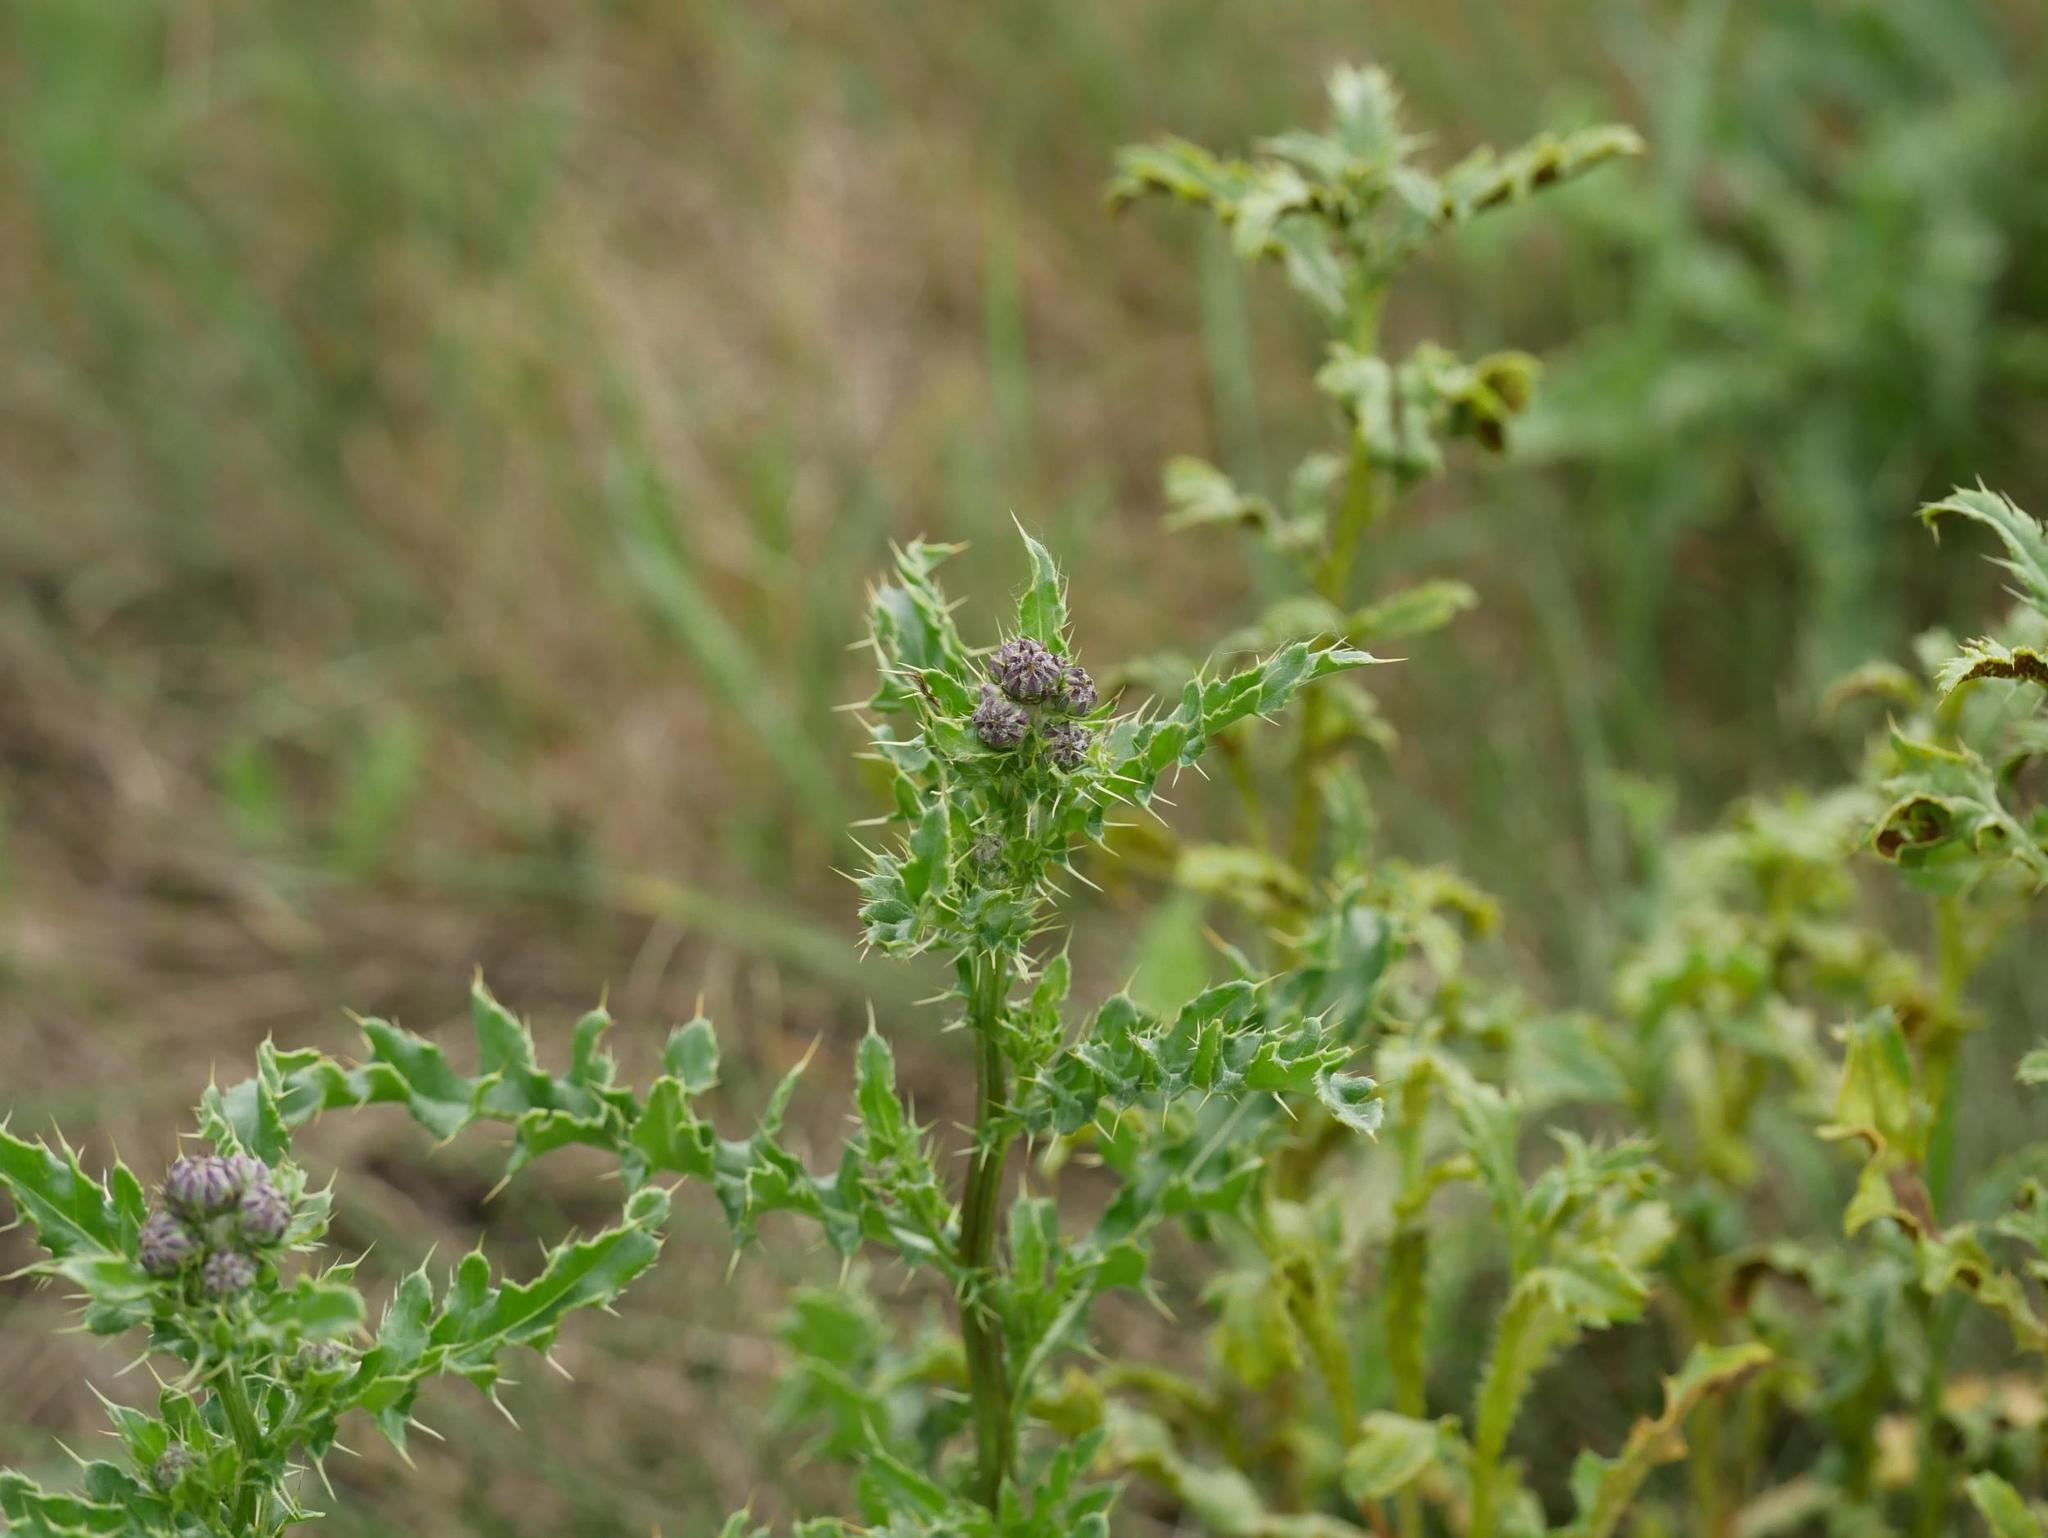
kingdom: Plantae
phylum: Tracheophyta
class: Magnoliopsida
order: Asterales
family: Asteraceae
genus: Cirsium
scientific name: Cirsium arvense
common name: Creeping thistle
